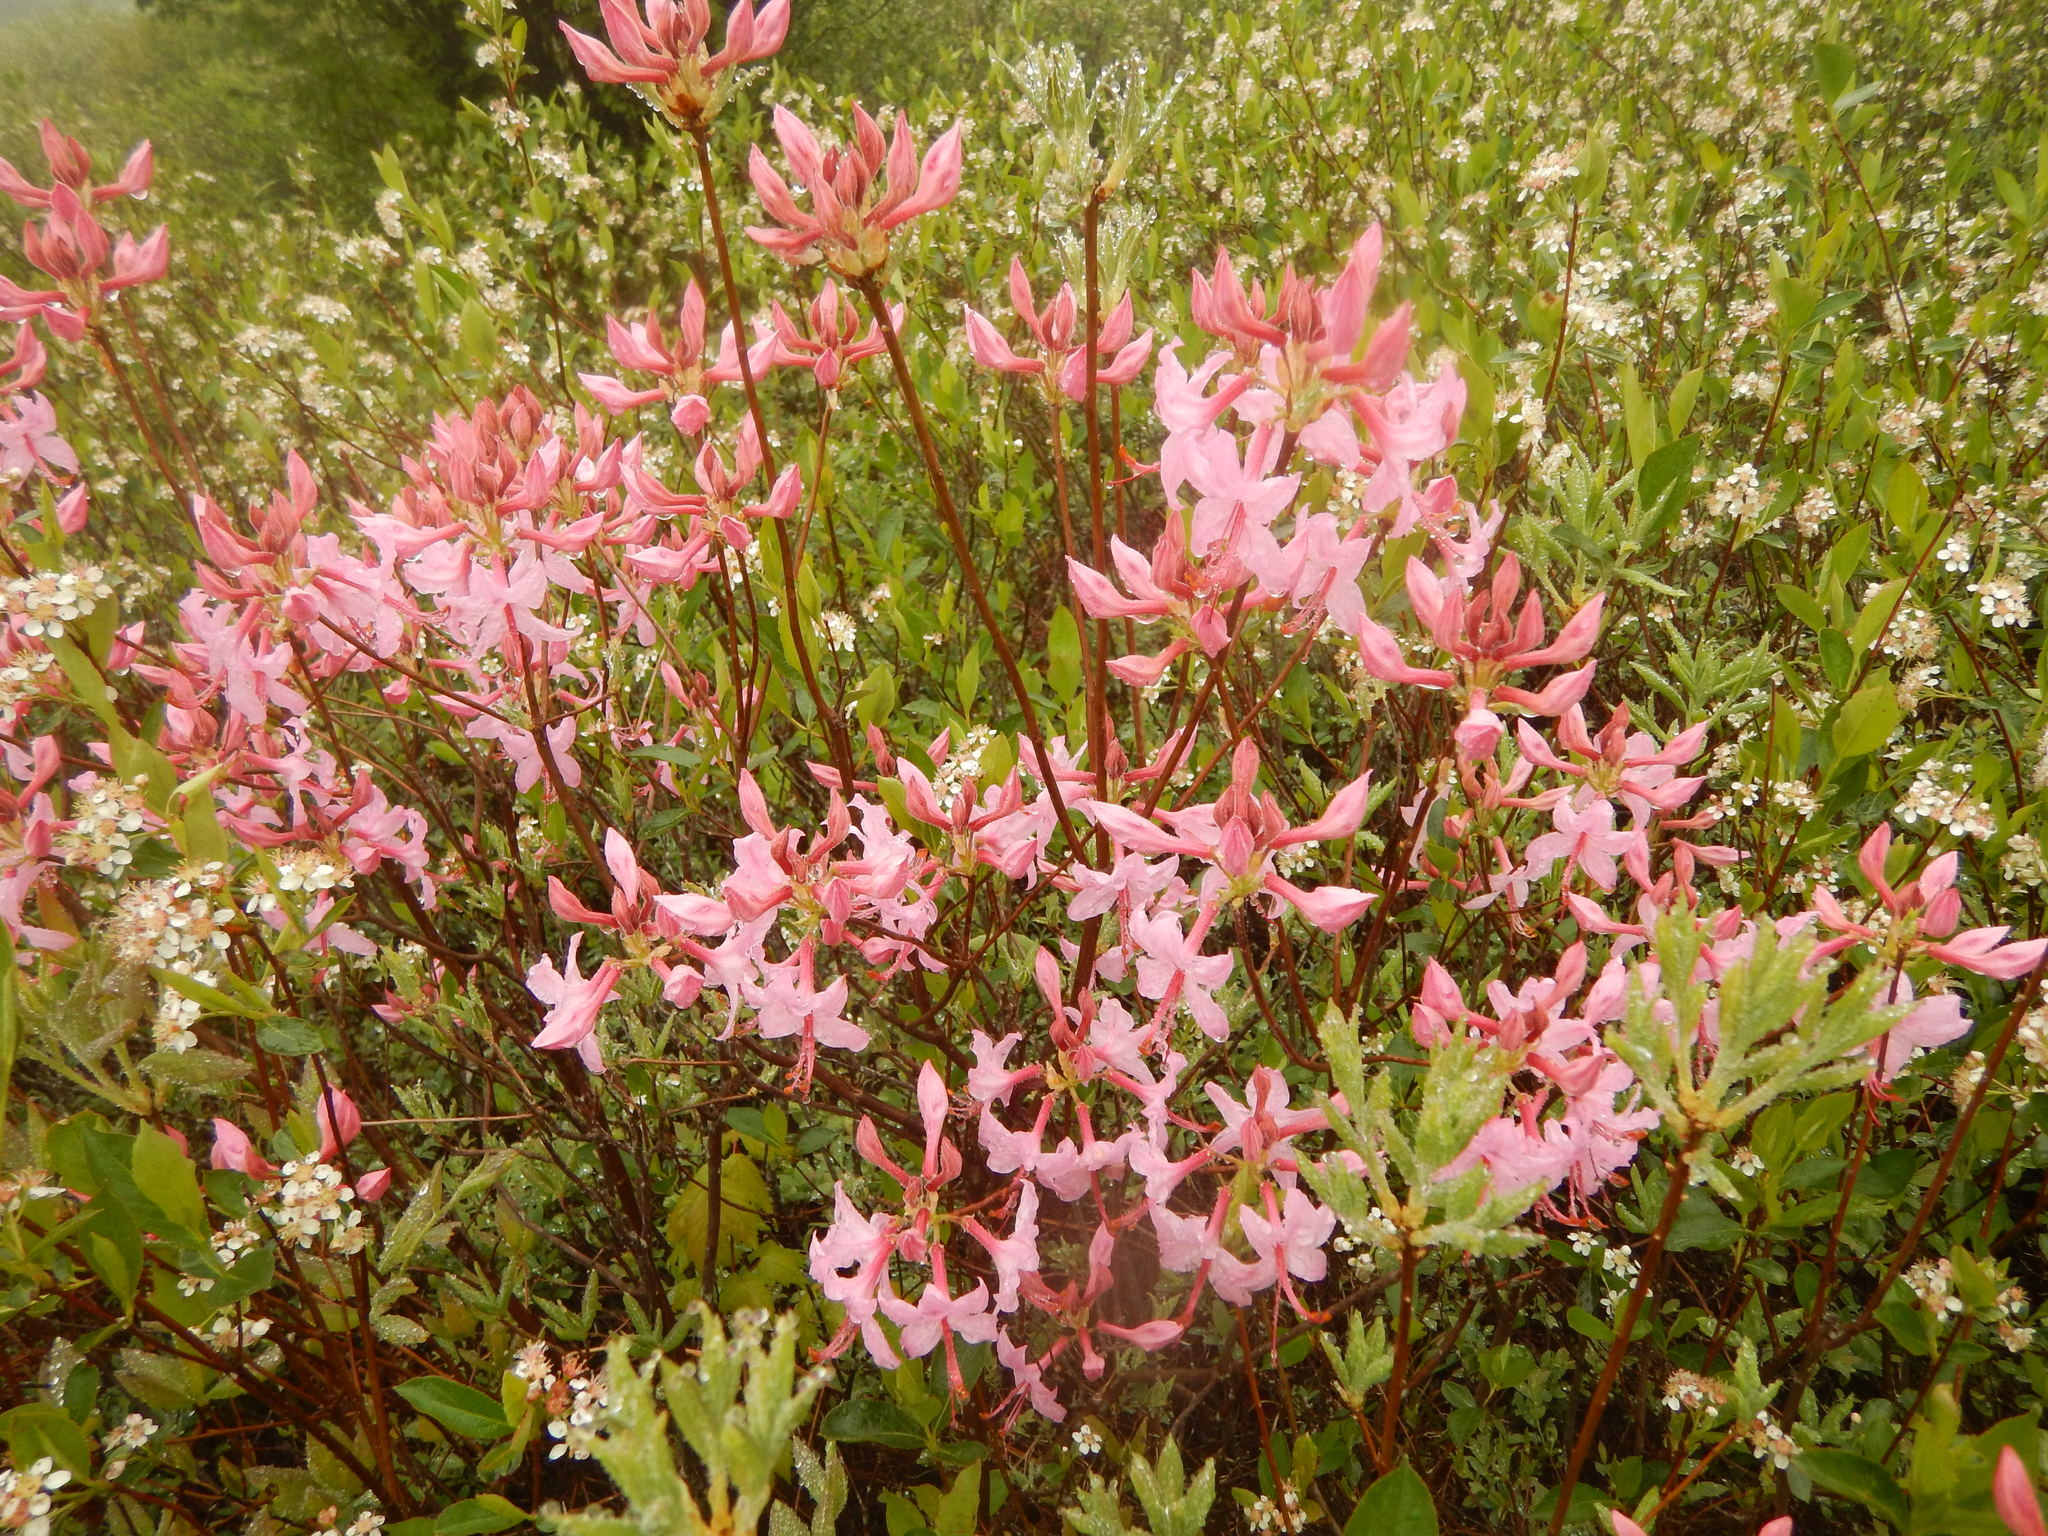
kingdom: Plantae
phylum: Tracheophyta
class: Magnoliopsida
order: Ericales
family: Ericaceae
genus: Rhododendron
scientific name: Rhododendron periclymenoides
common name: Election-pink
